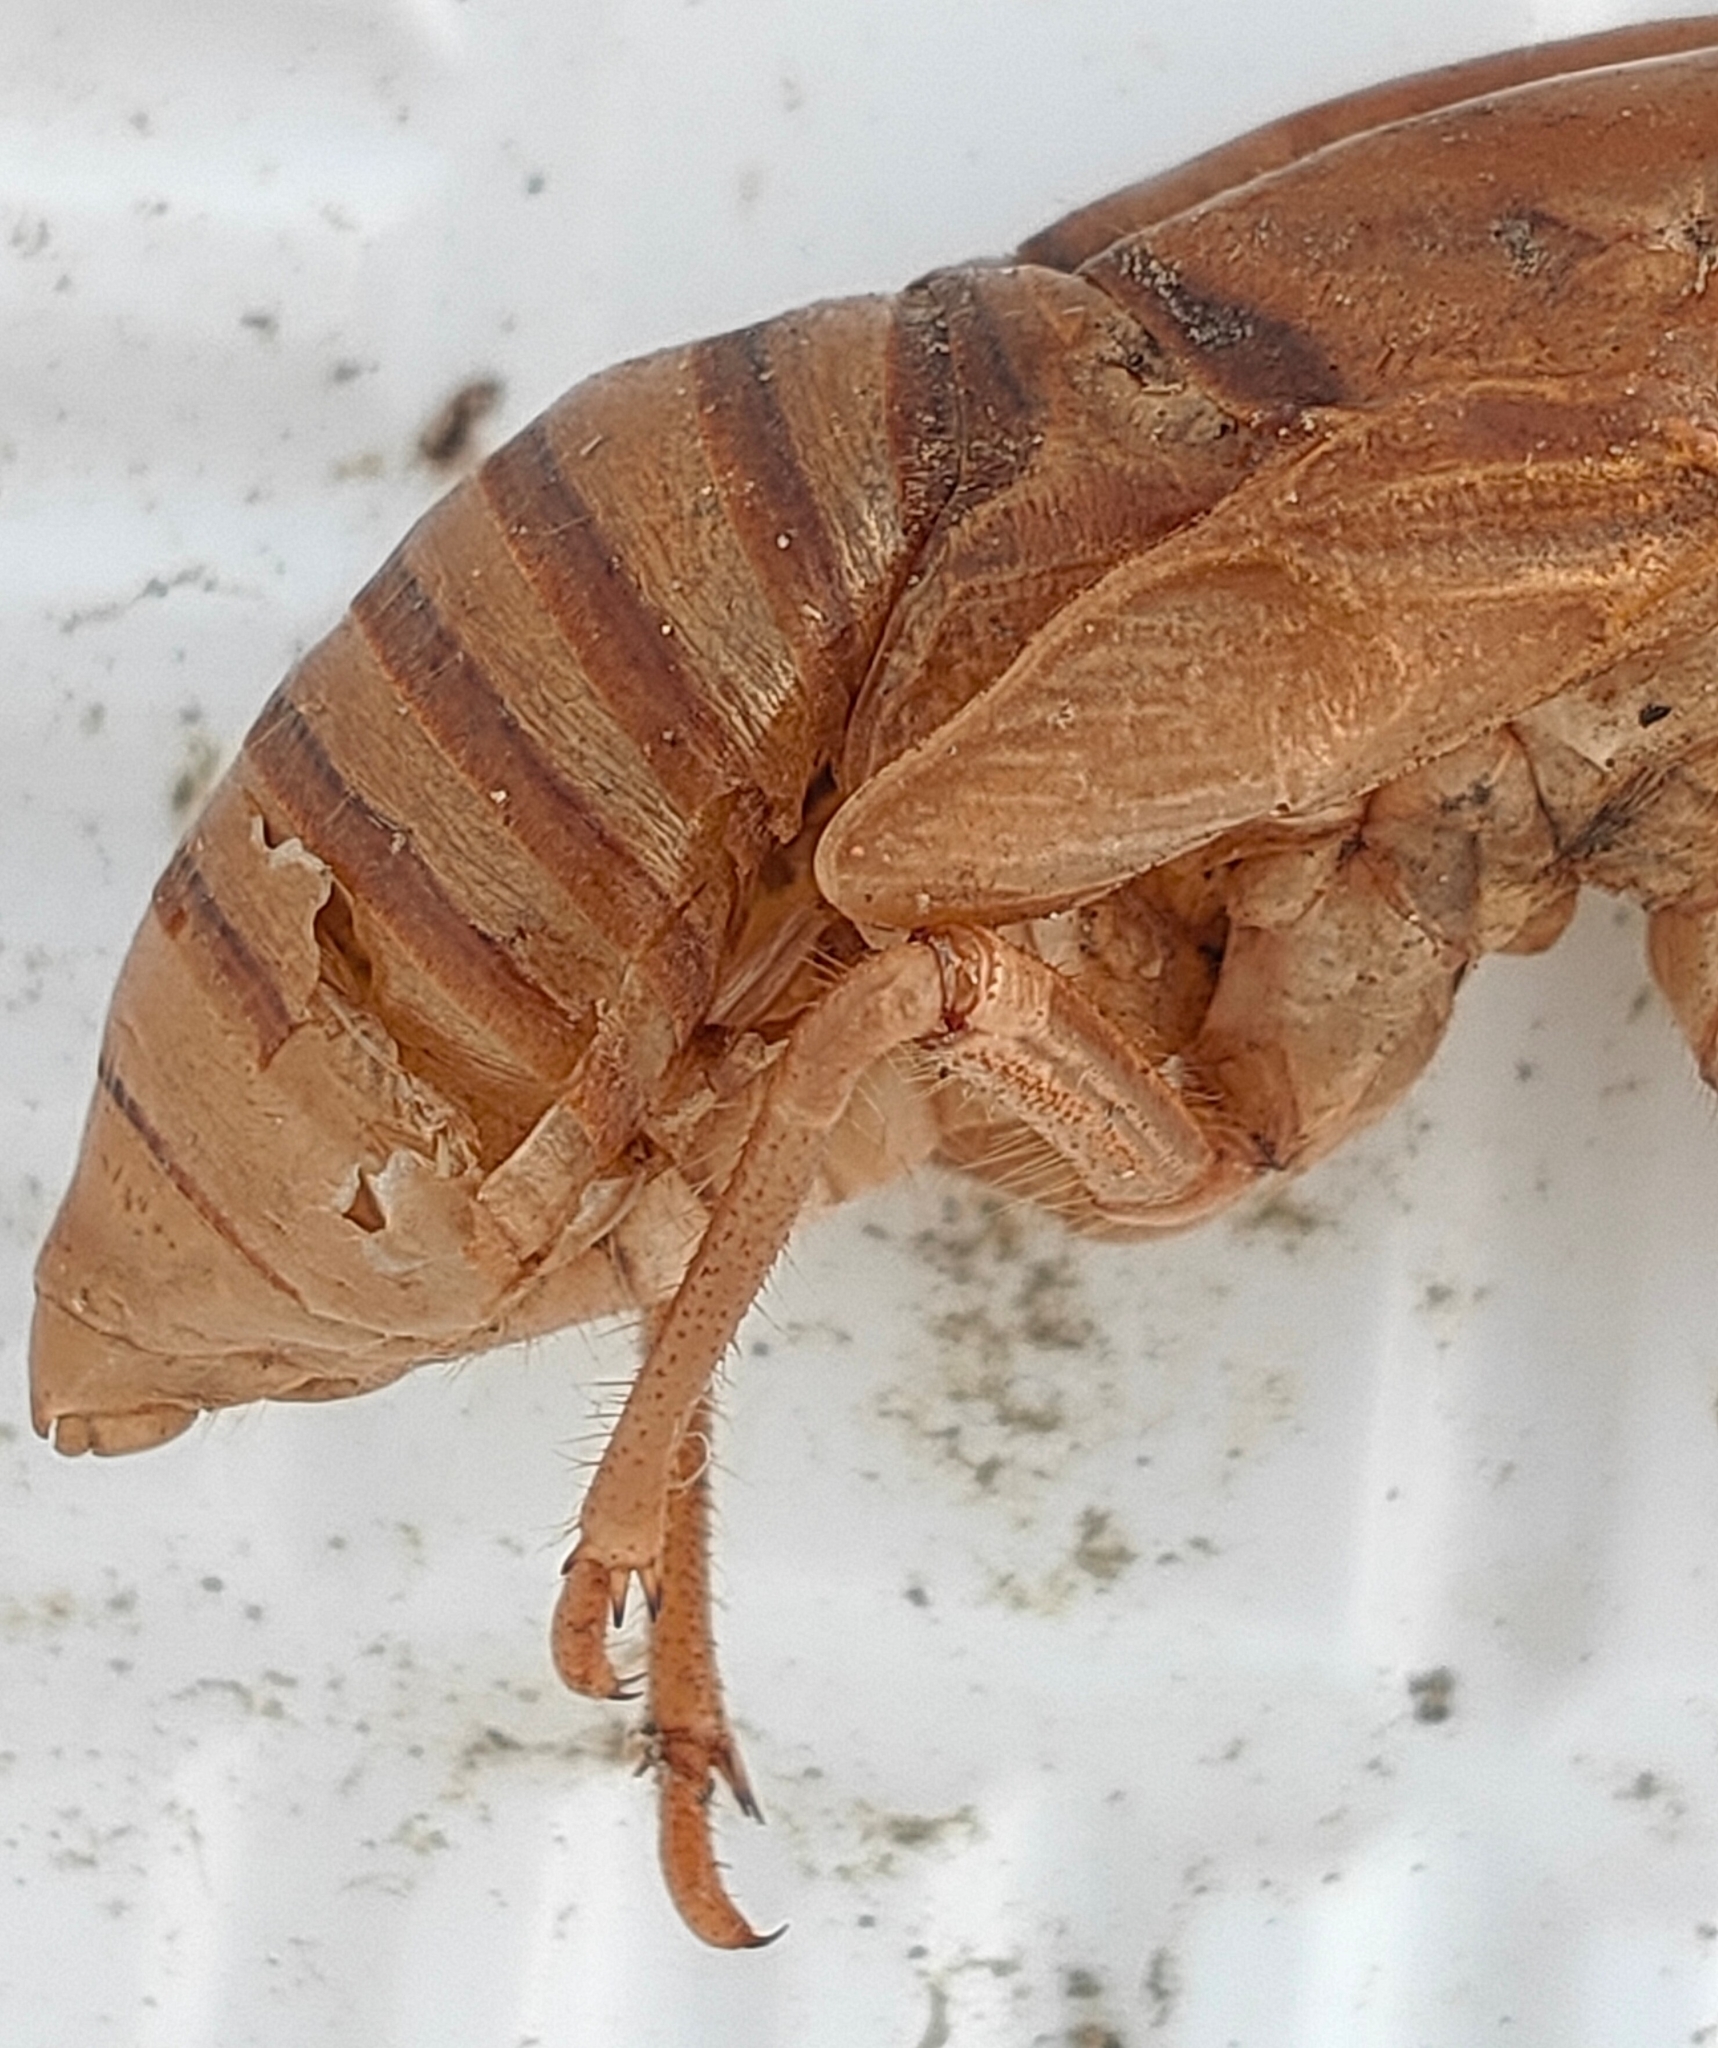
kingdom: Animalia
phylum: Arthropoda
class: Insecta
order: Hemiptera
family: Cicadidae
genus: Graptopsaltria
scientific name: Graptopsaltria nigrofuscata
